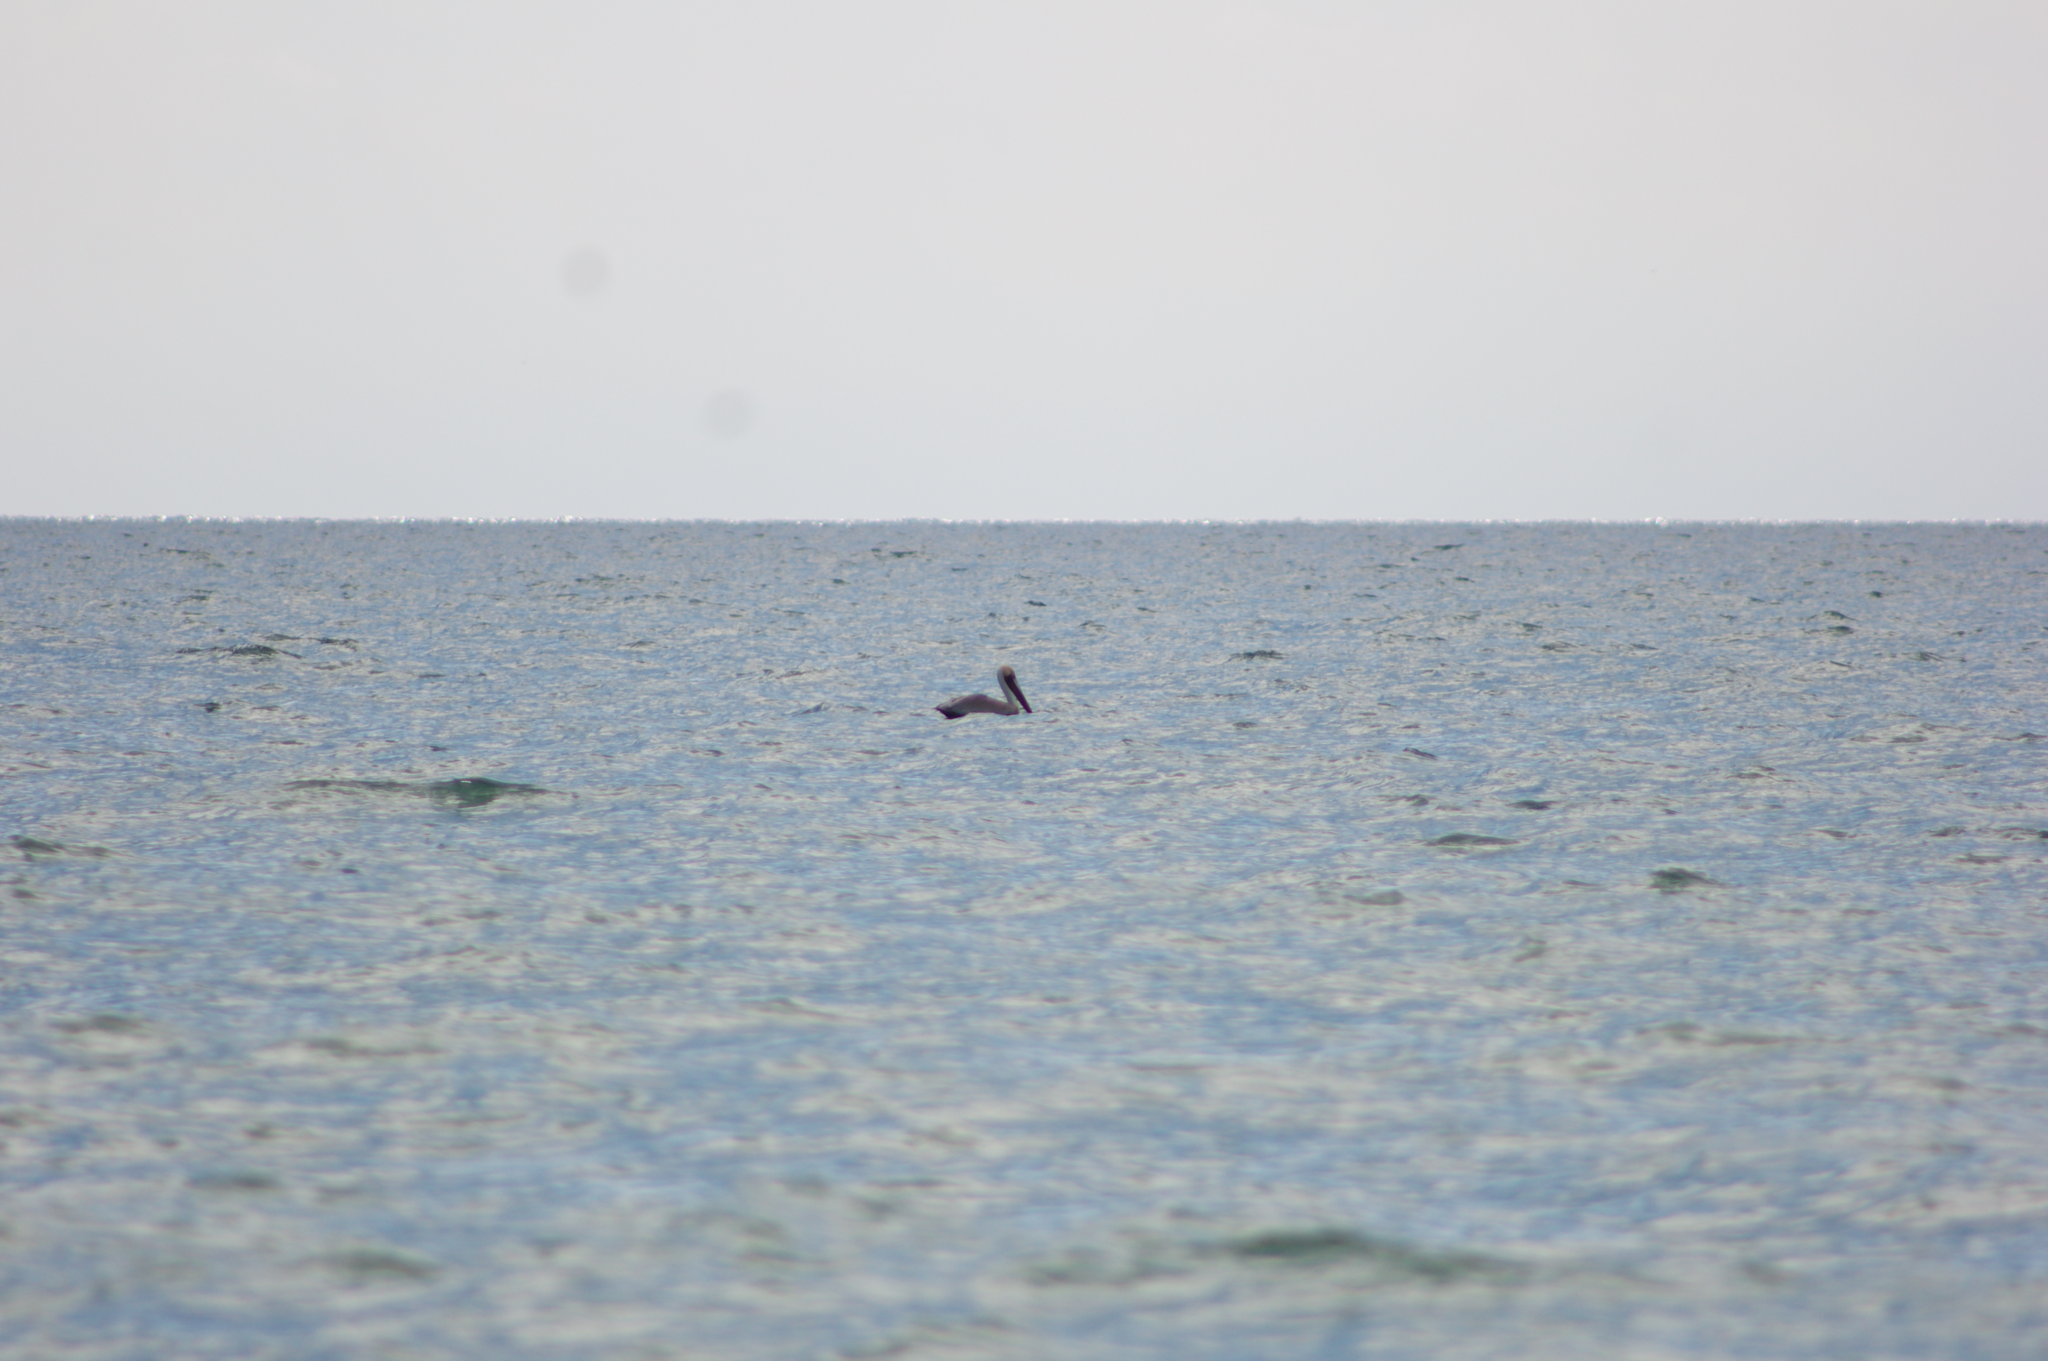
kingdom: Animalia
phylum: Chordata
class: Aves
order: Pelecaniformes
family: Pelecanidae
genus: Pelecanus
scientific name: Pelecanus occidentalis
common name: Brown pelican
